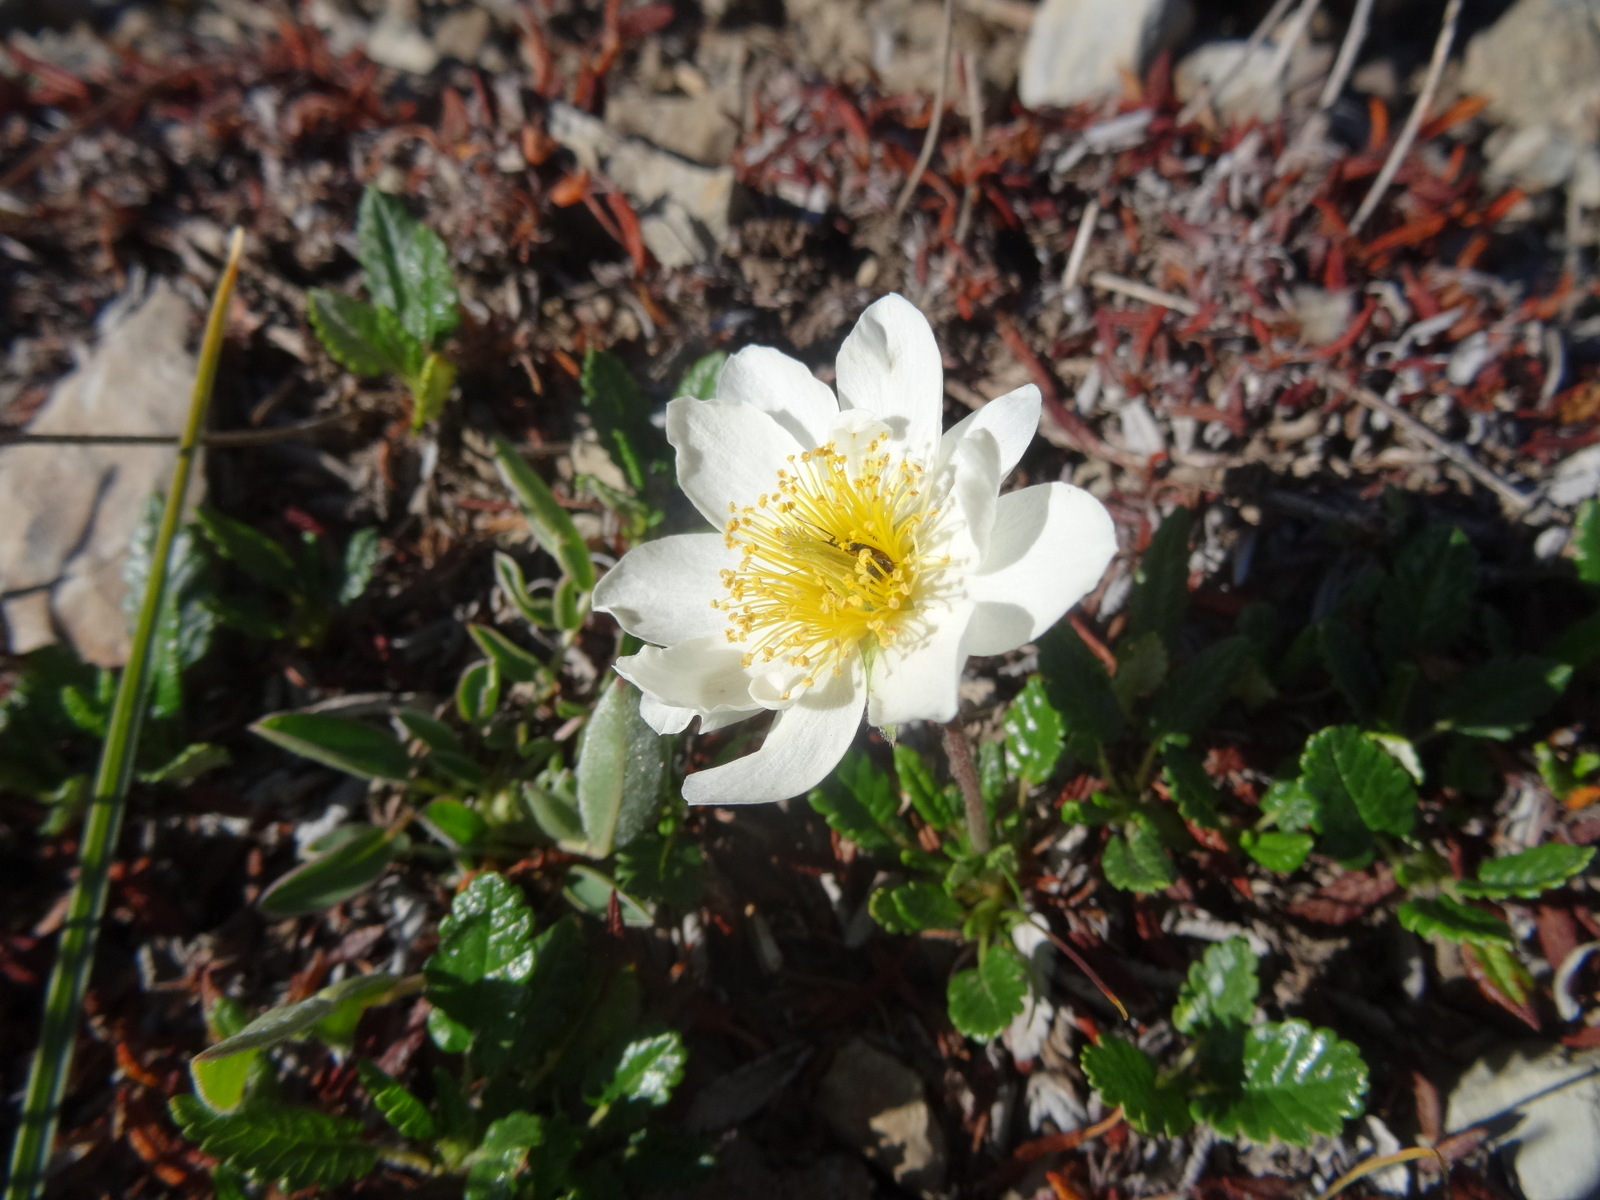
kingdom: Plantae
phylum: Tracheophyta
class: Magnoliopsida
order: Rosales
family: Rosaceae
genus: Dryas
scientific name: Dryas octopetala
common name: Eight-petal mountain-avens
